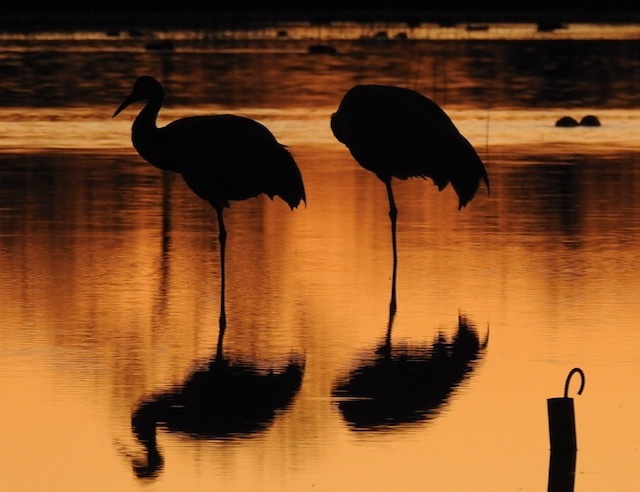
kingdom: Animalia
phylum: Chordata
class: Aves
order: Gruiformes
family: Gruidae
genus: Grus
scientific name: Grus canadensis
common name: Sandhill crane
